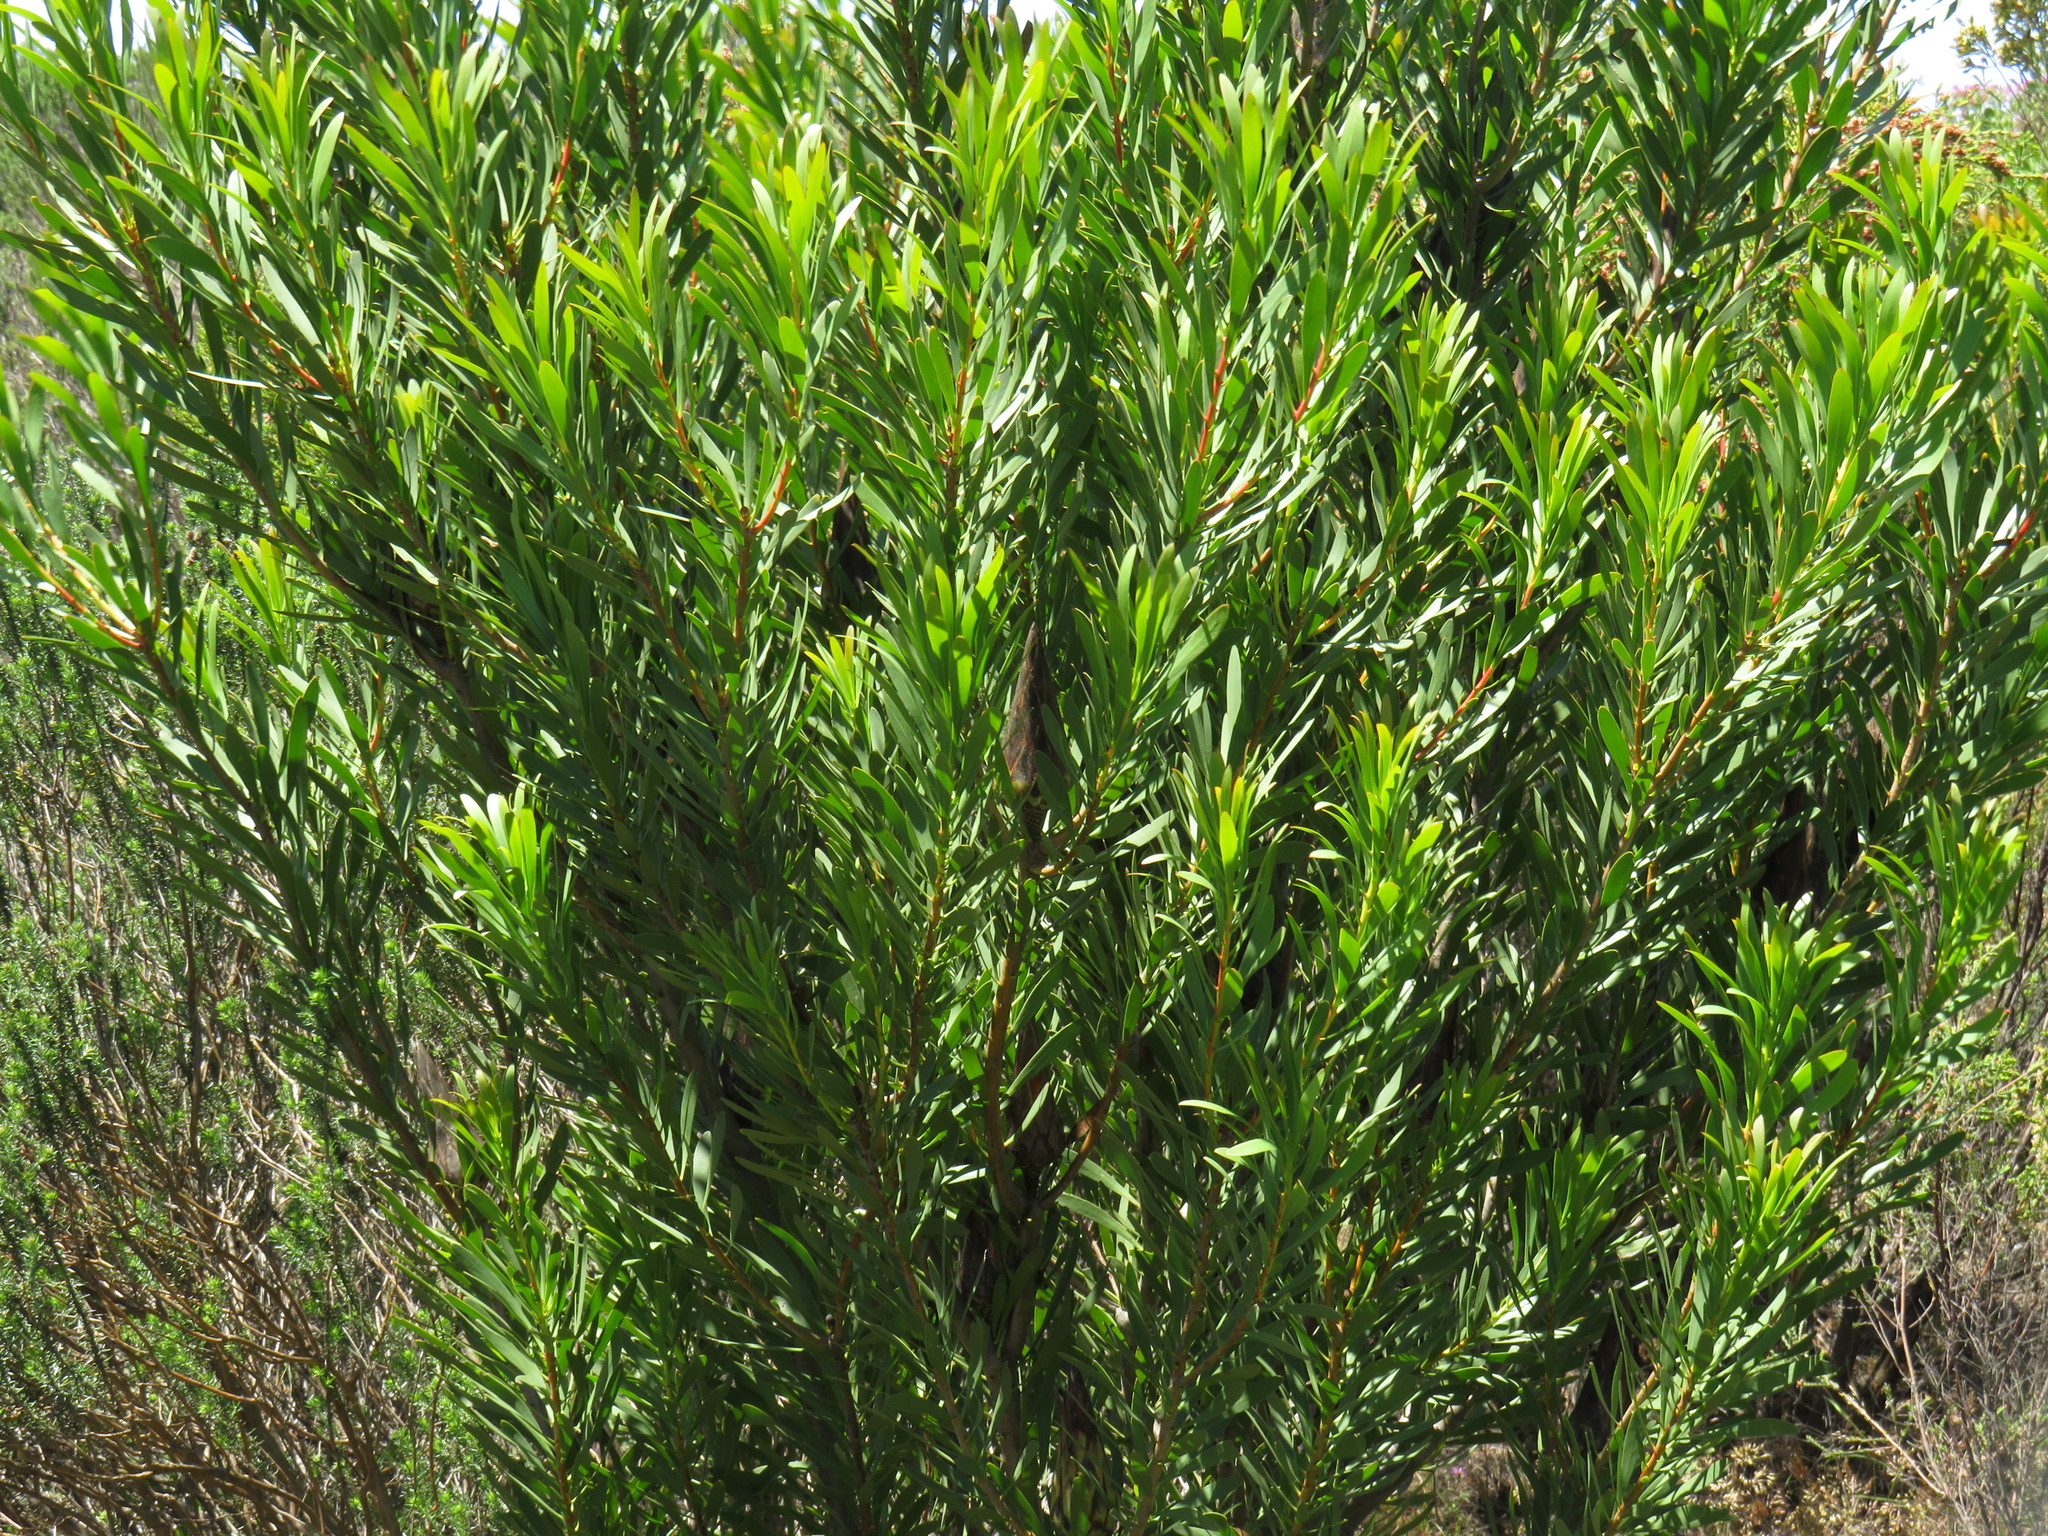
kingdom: Plantae
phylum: Tracheophyta
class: Magnoliopsida
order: Proteales
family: Proteaceae
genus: Protea
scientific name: Protea repens
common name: Sugarbush
